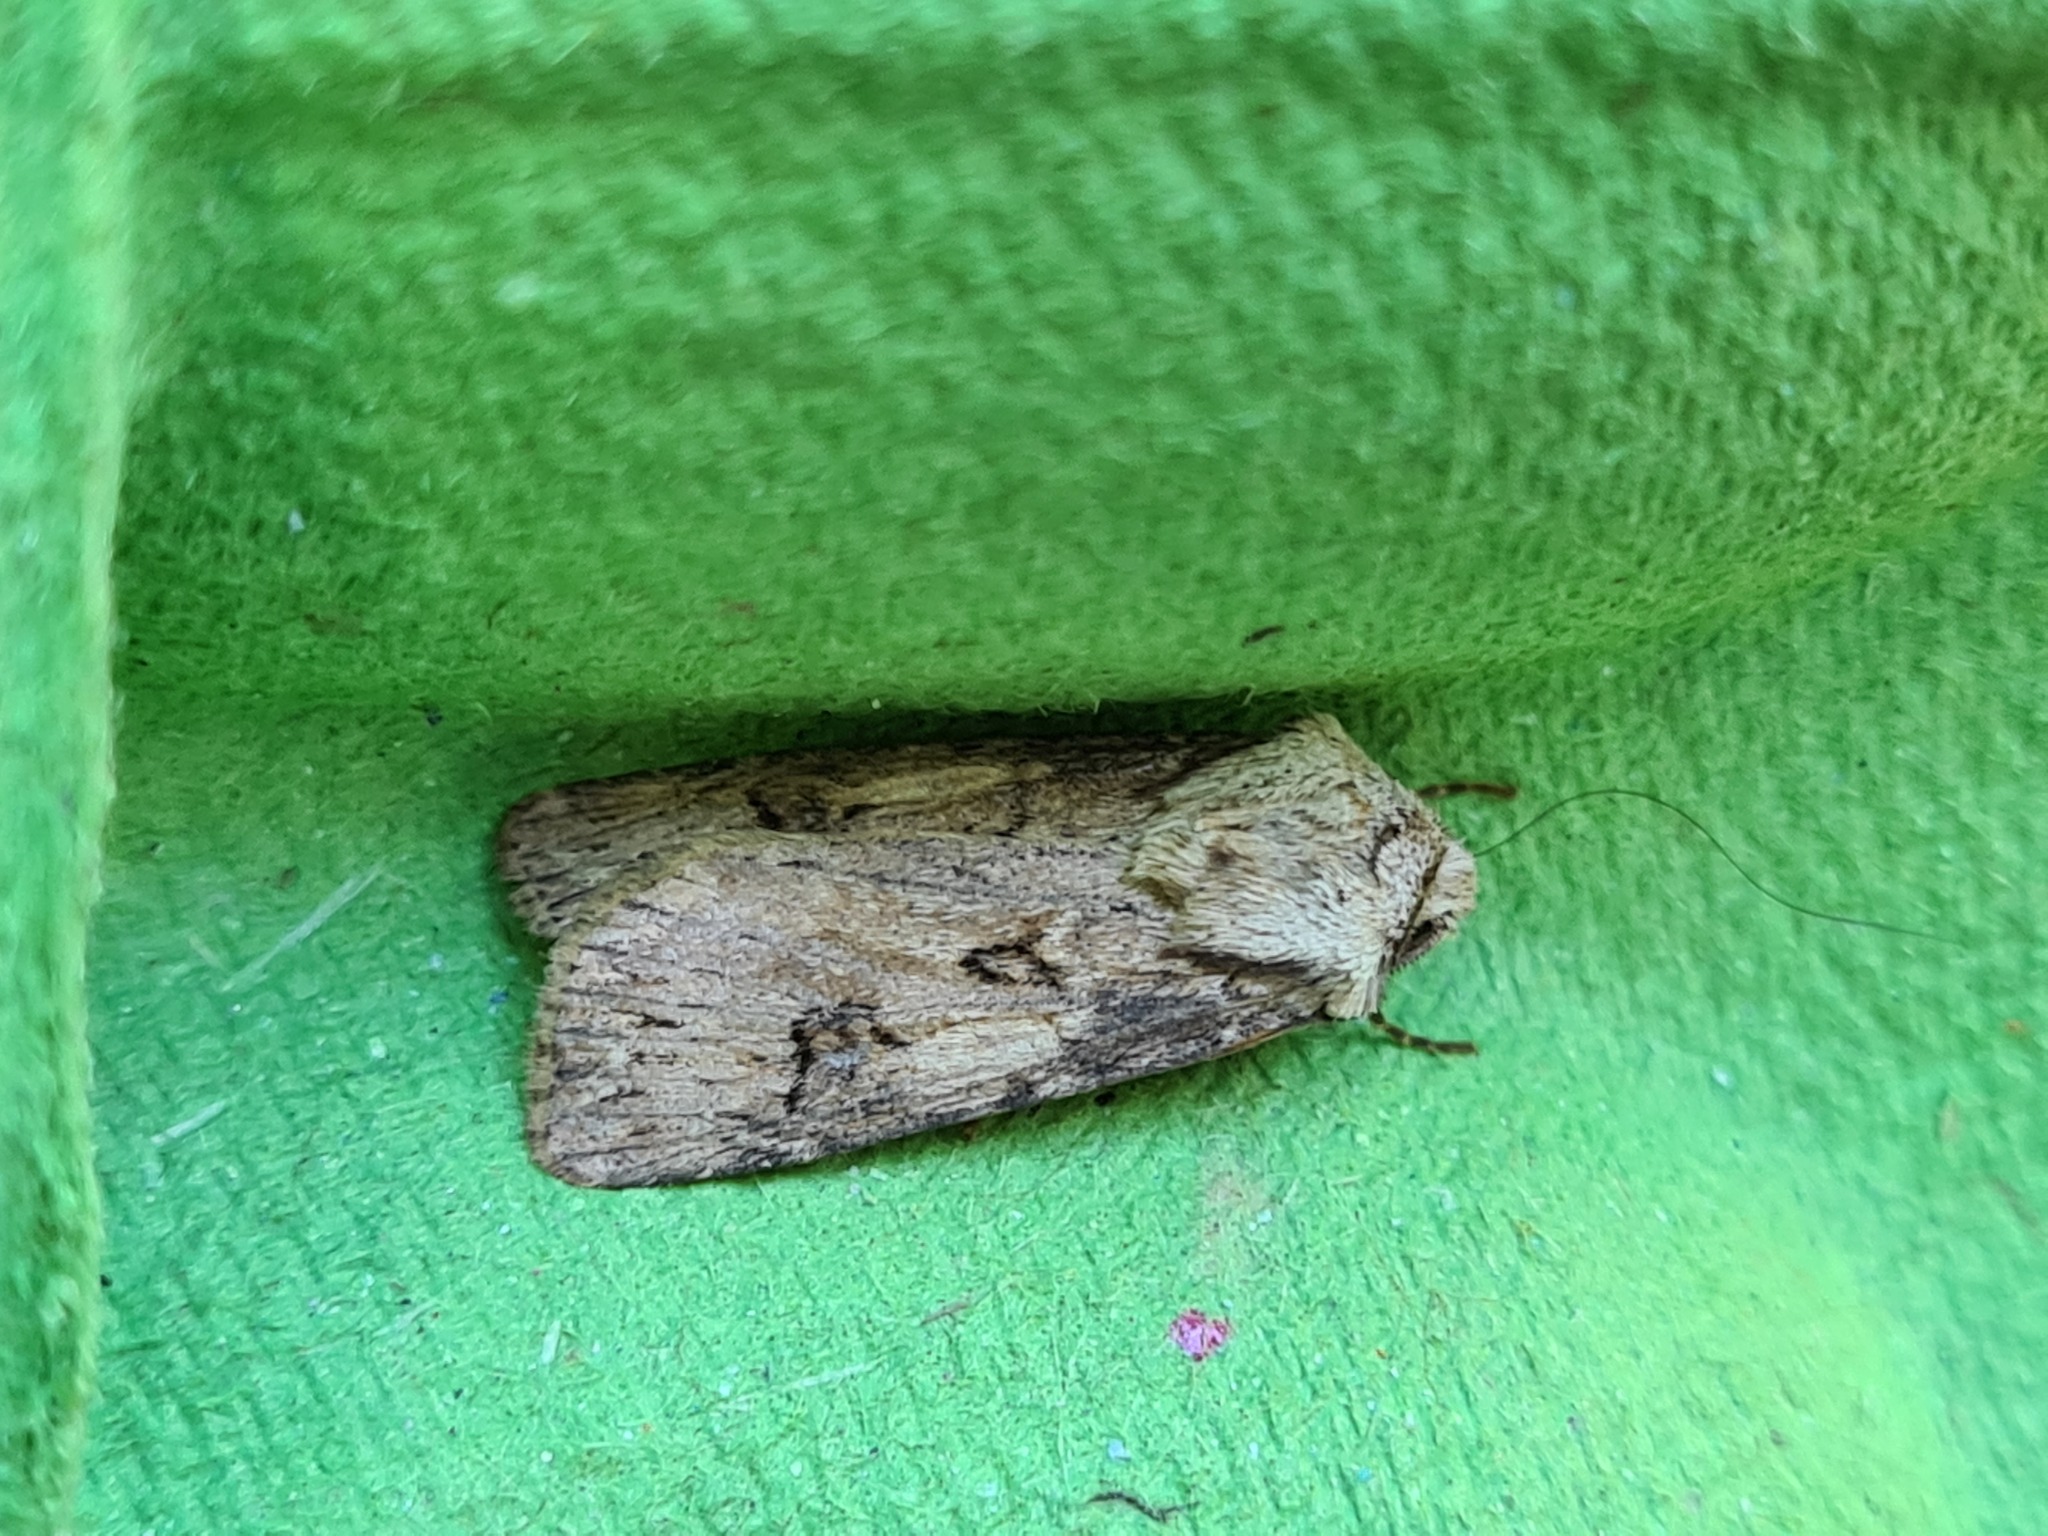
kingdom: Animalia
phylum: Arthropoda
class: Insecta
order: Lepidoptera
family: Noctuidae
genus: Agrotis
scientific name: Agrotis puta
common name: Shuttle-shaped dart
